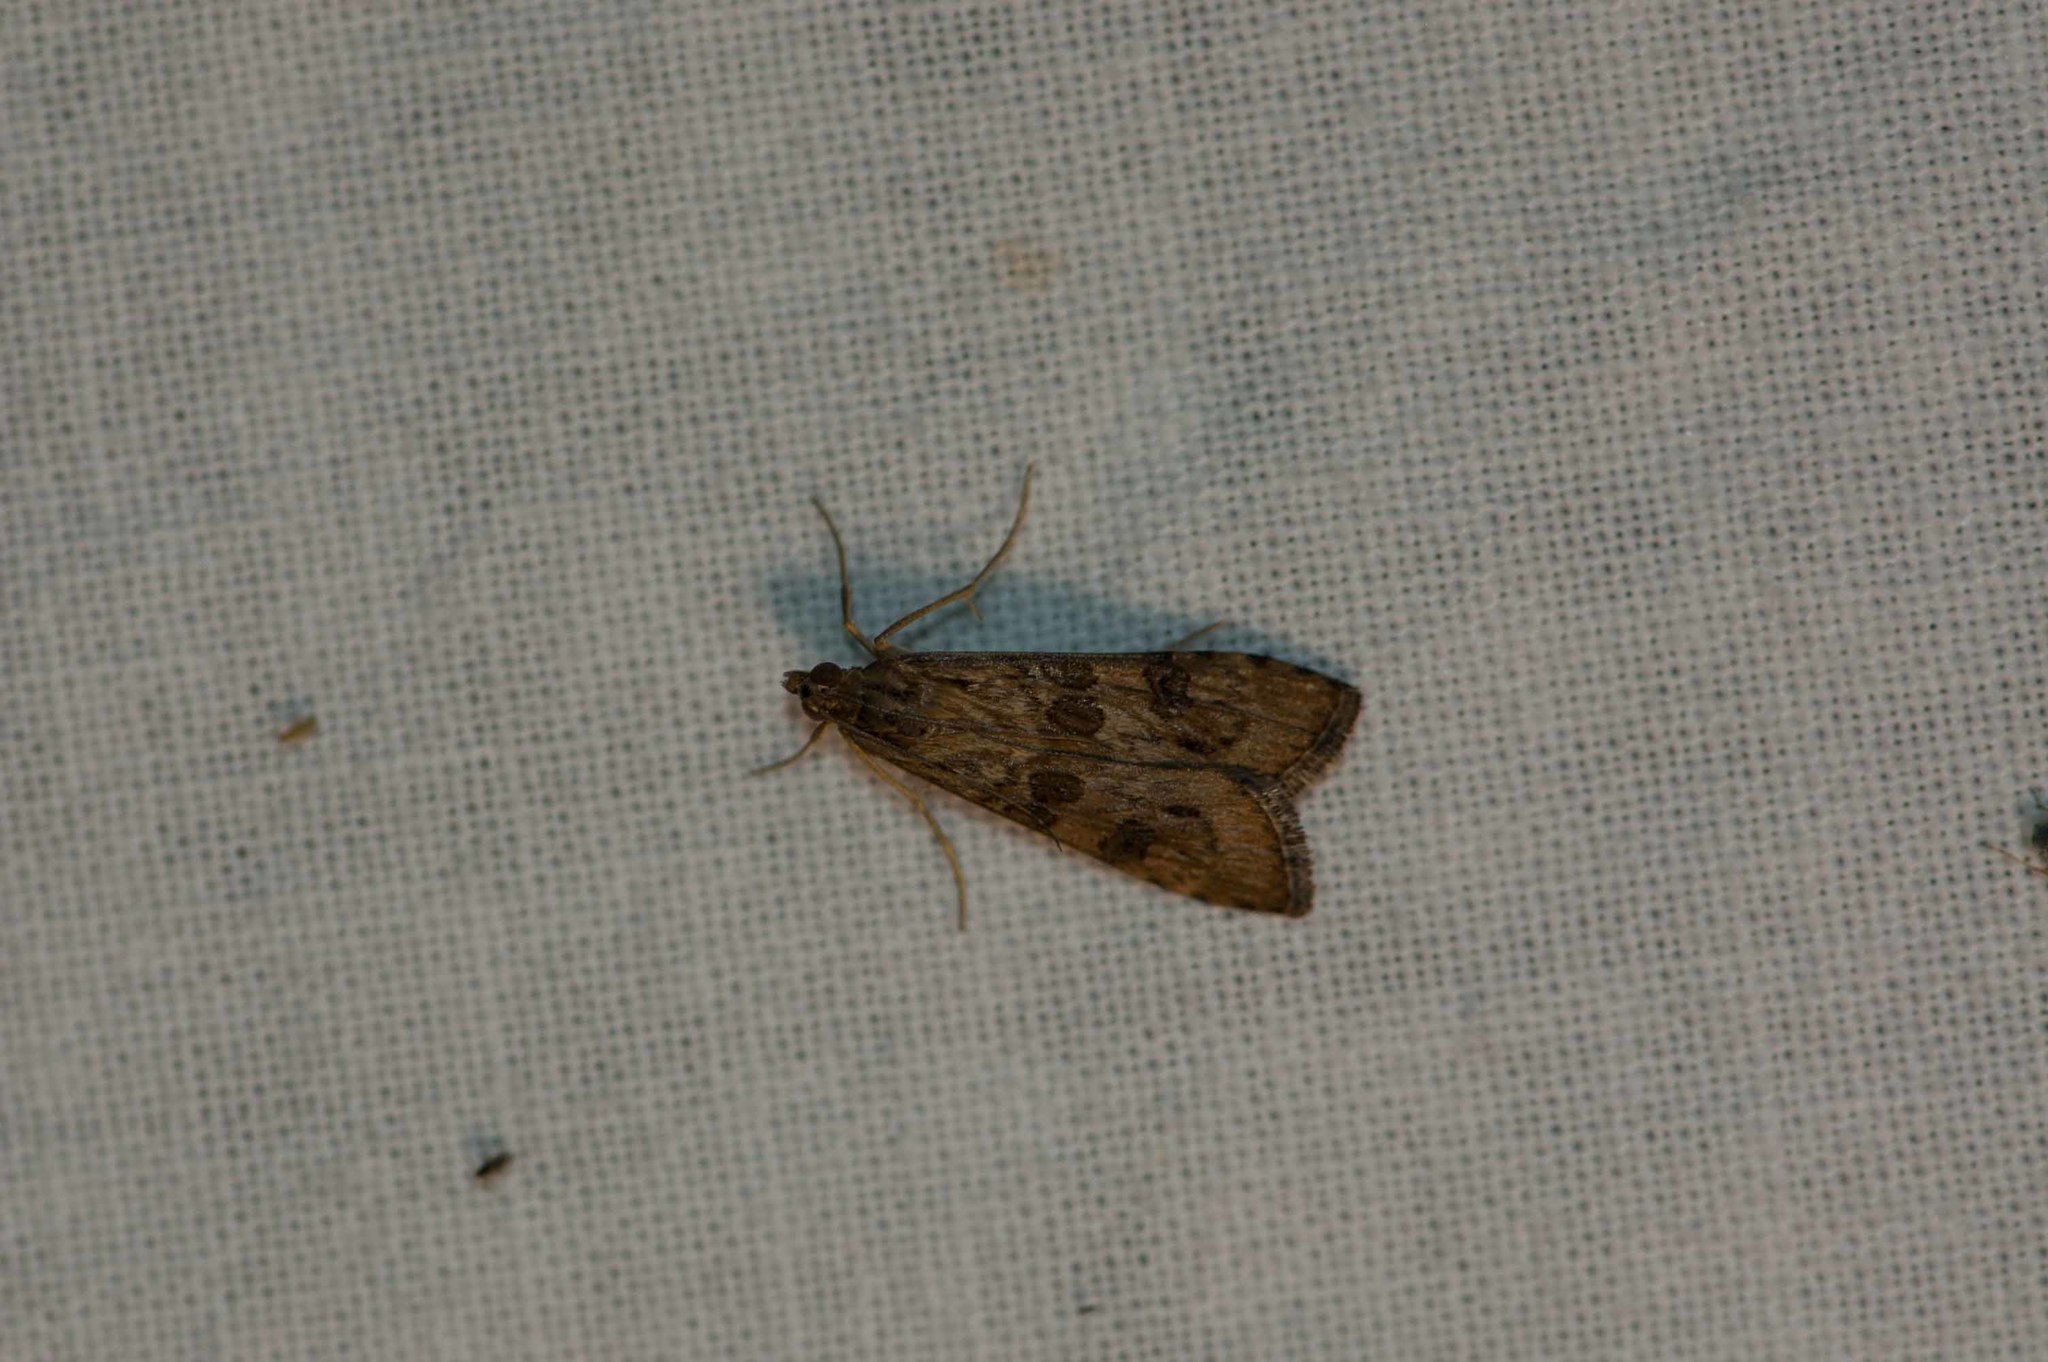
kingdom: Animalia
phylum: Arthropoda
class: Insecta
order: Lepidoptera
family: Crambidae
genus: Nomophila
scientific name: Nomophila noctuella
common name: Rush veneer
